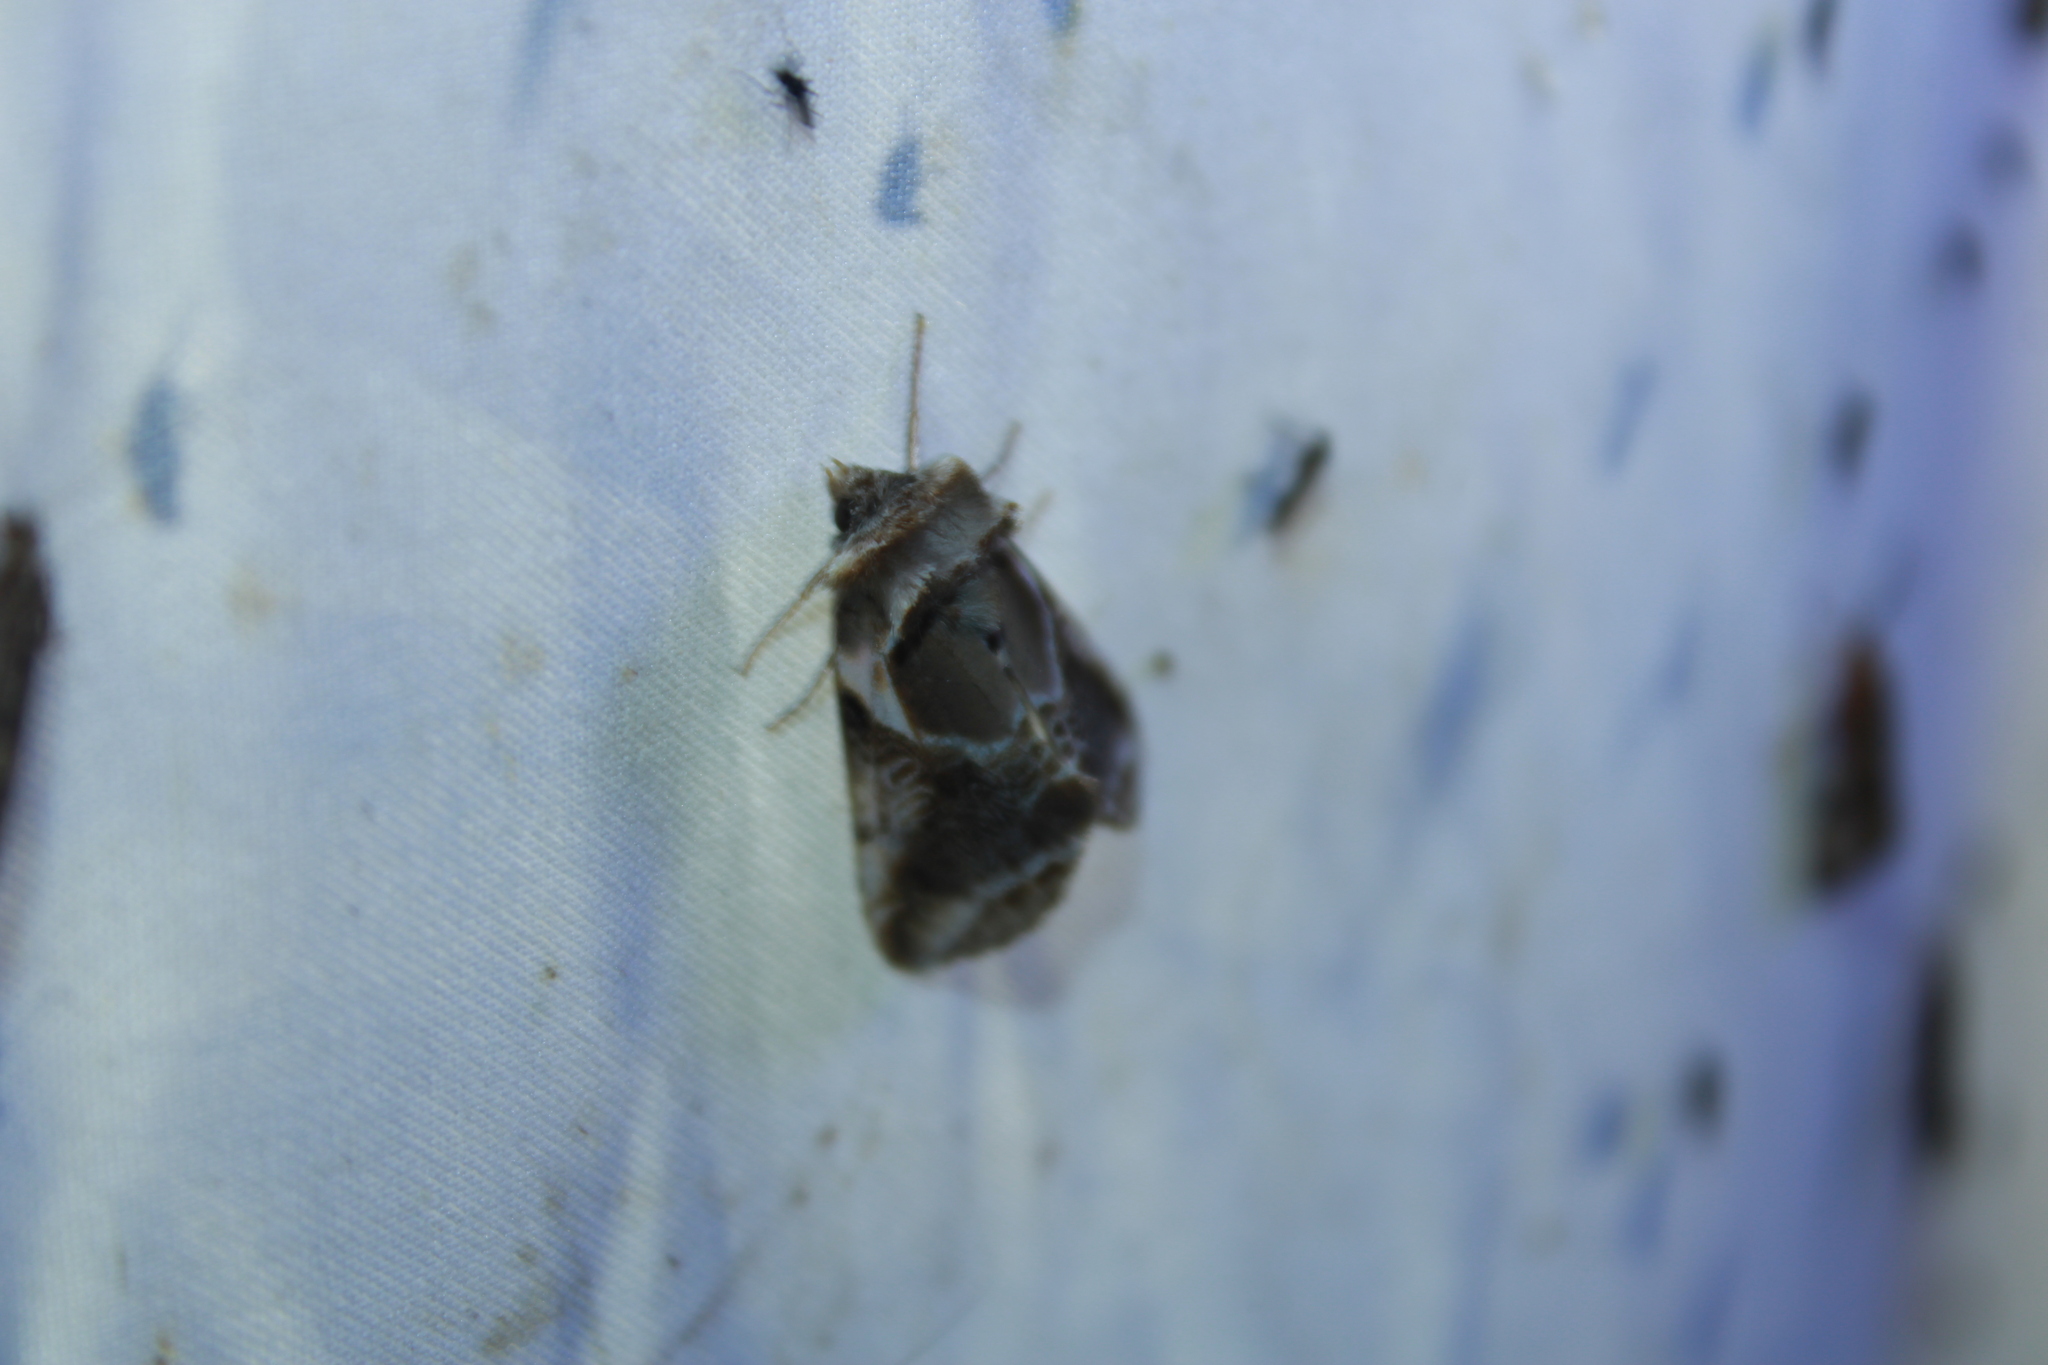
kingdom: Animalia
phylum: Arthropoda
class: Insecta
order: Lepidoptera
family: Drepanidae
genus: Habrosyne
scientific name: Habrosyne scripta
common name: Lettered habrosyne moth
